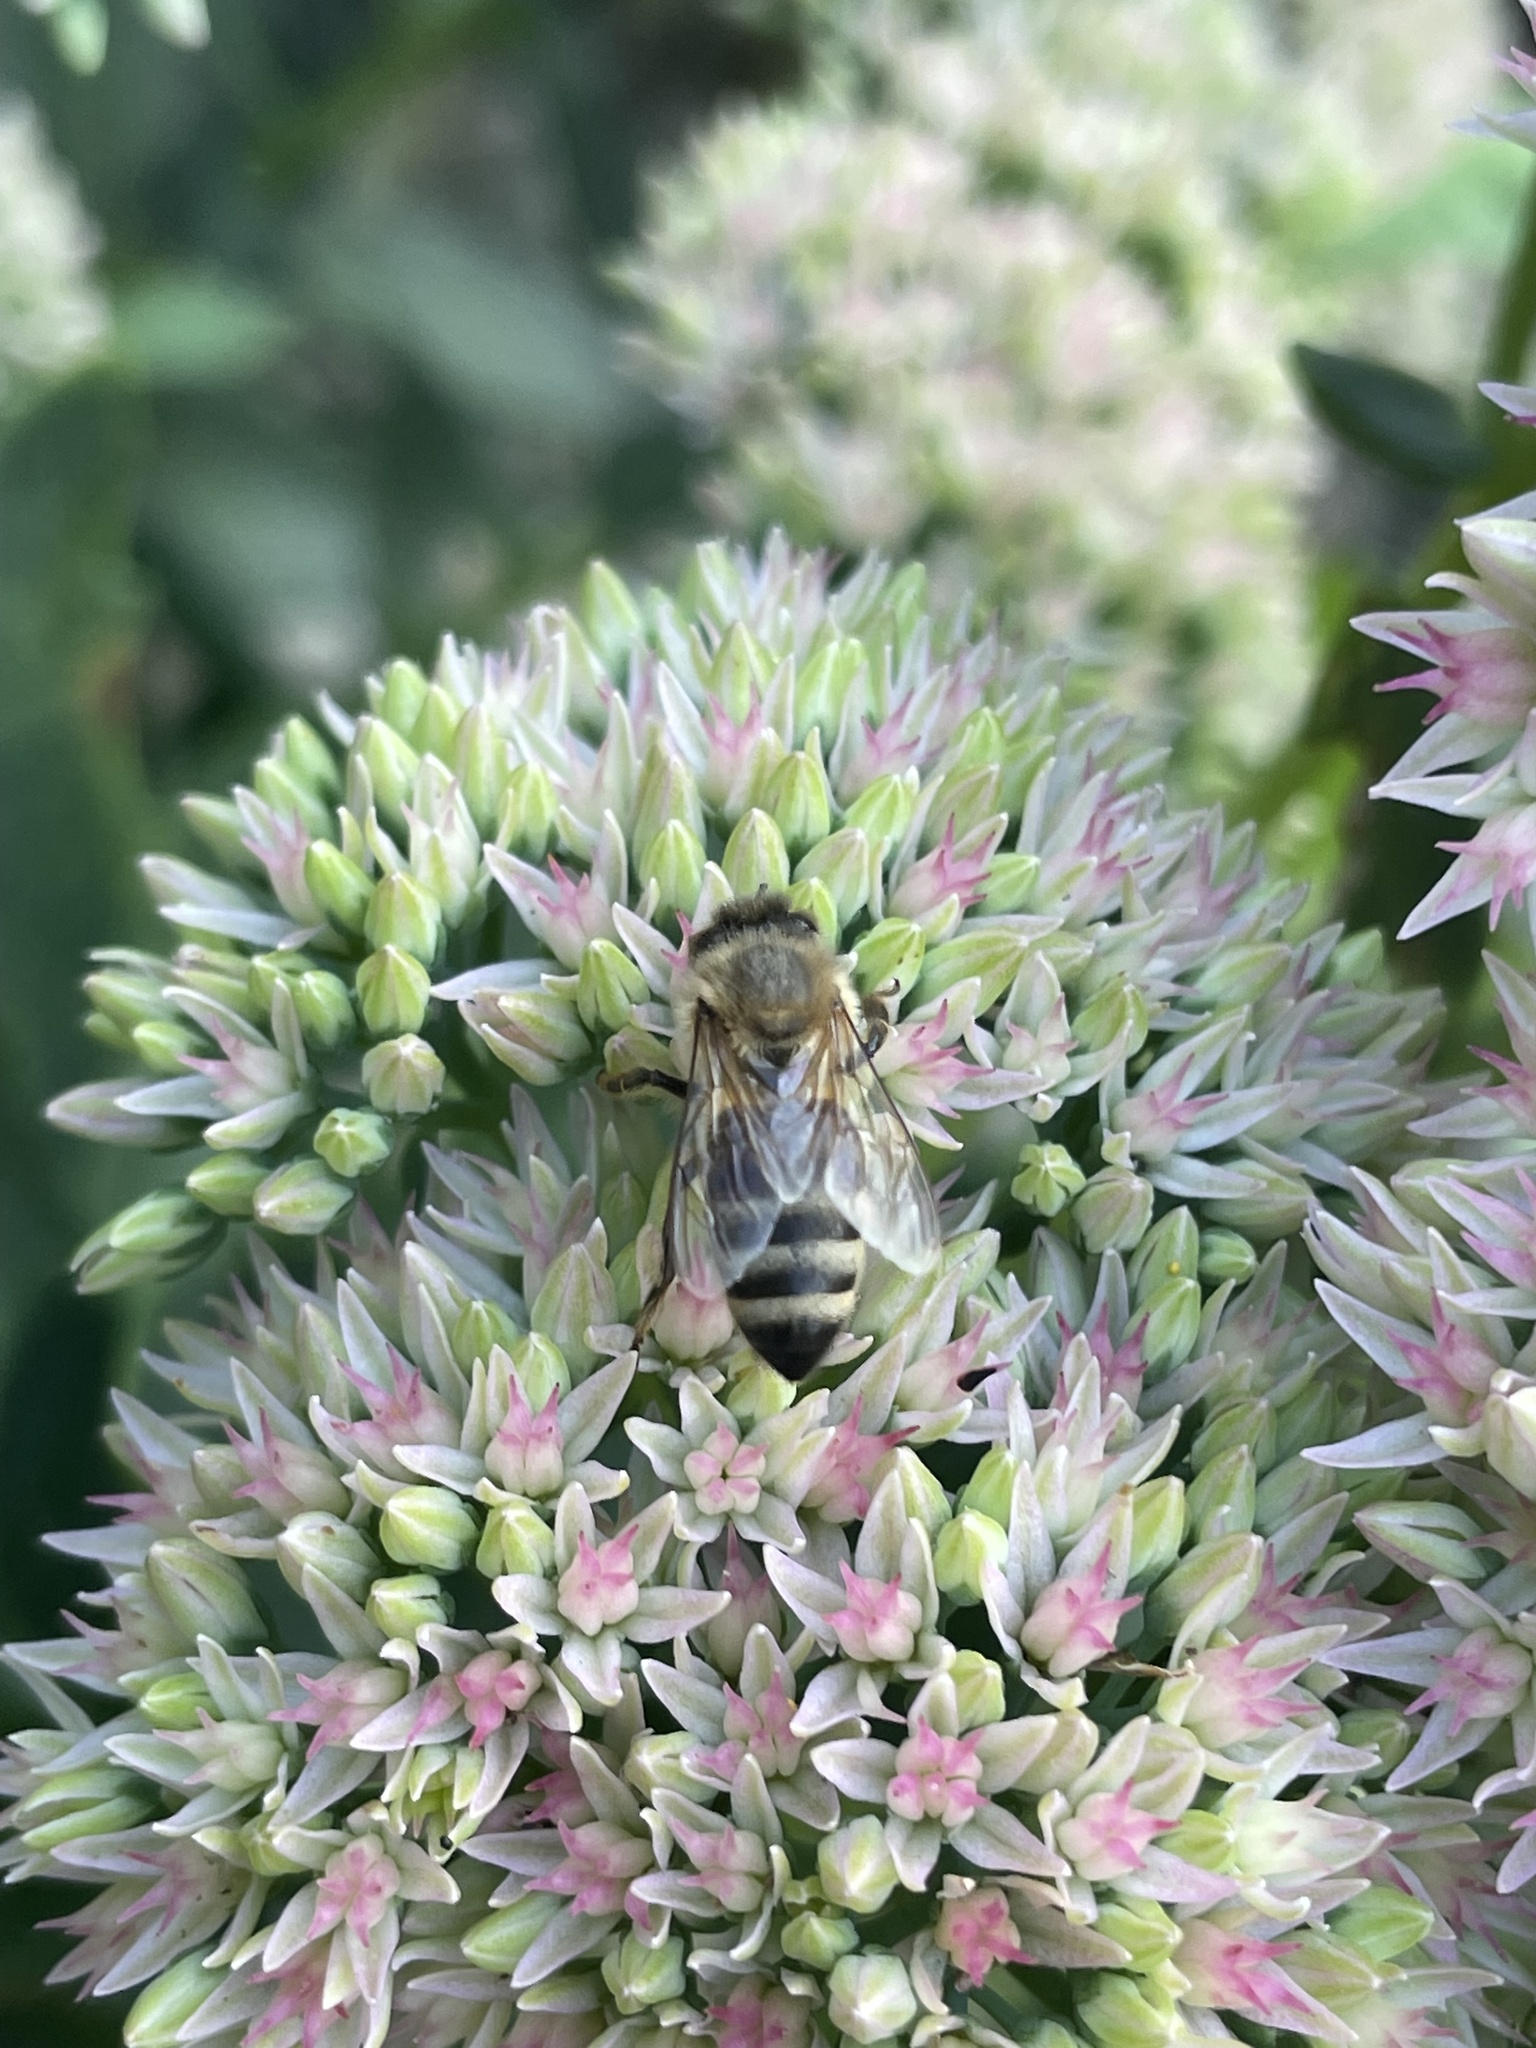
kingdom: Animalia
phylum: Arthropoda
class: Insecta
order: Hymenoptera
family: Apidae
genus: Apis
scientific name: Apis mellifera
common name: Honey bee
